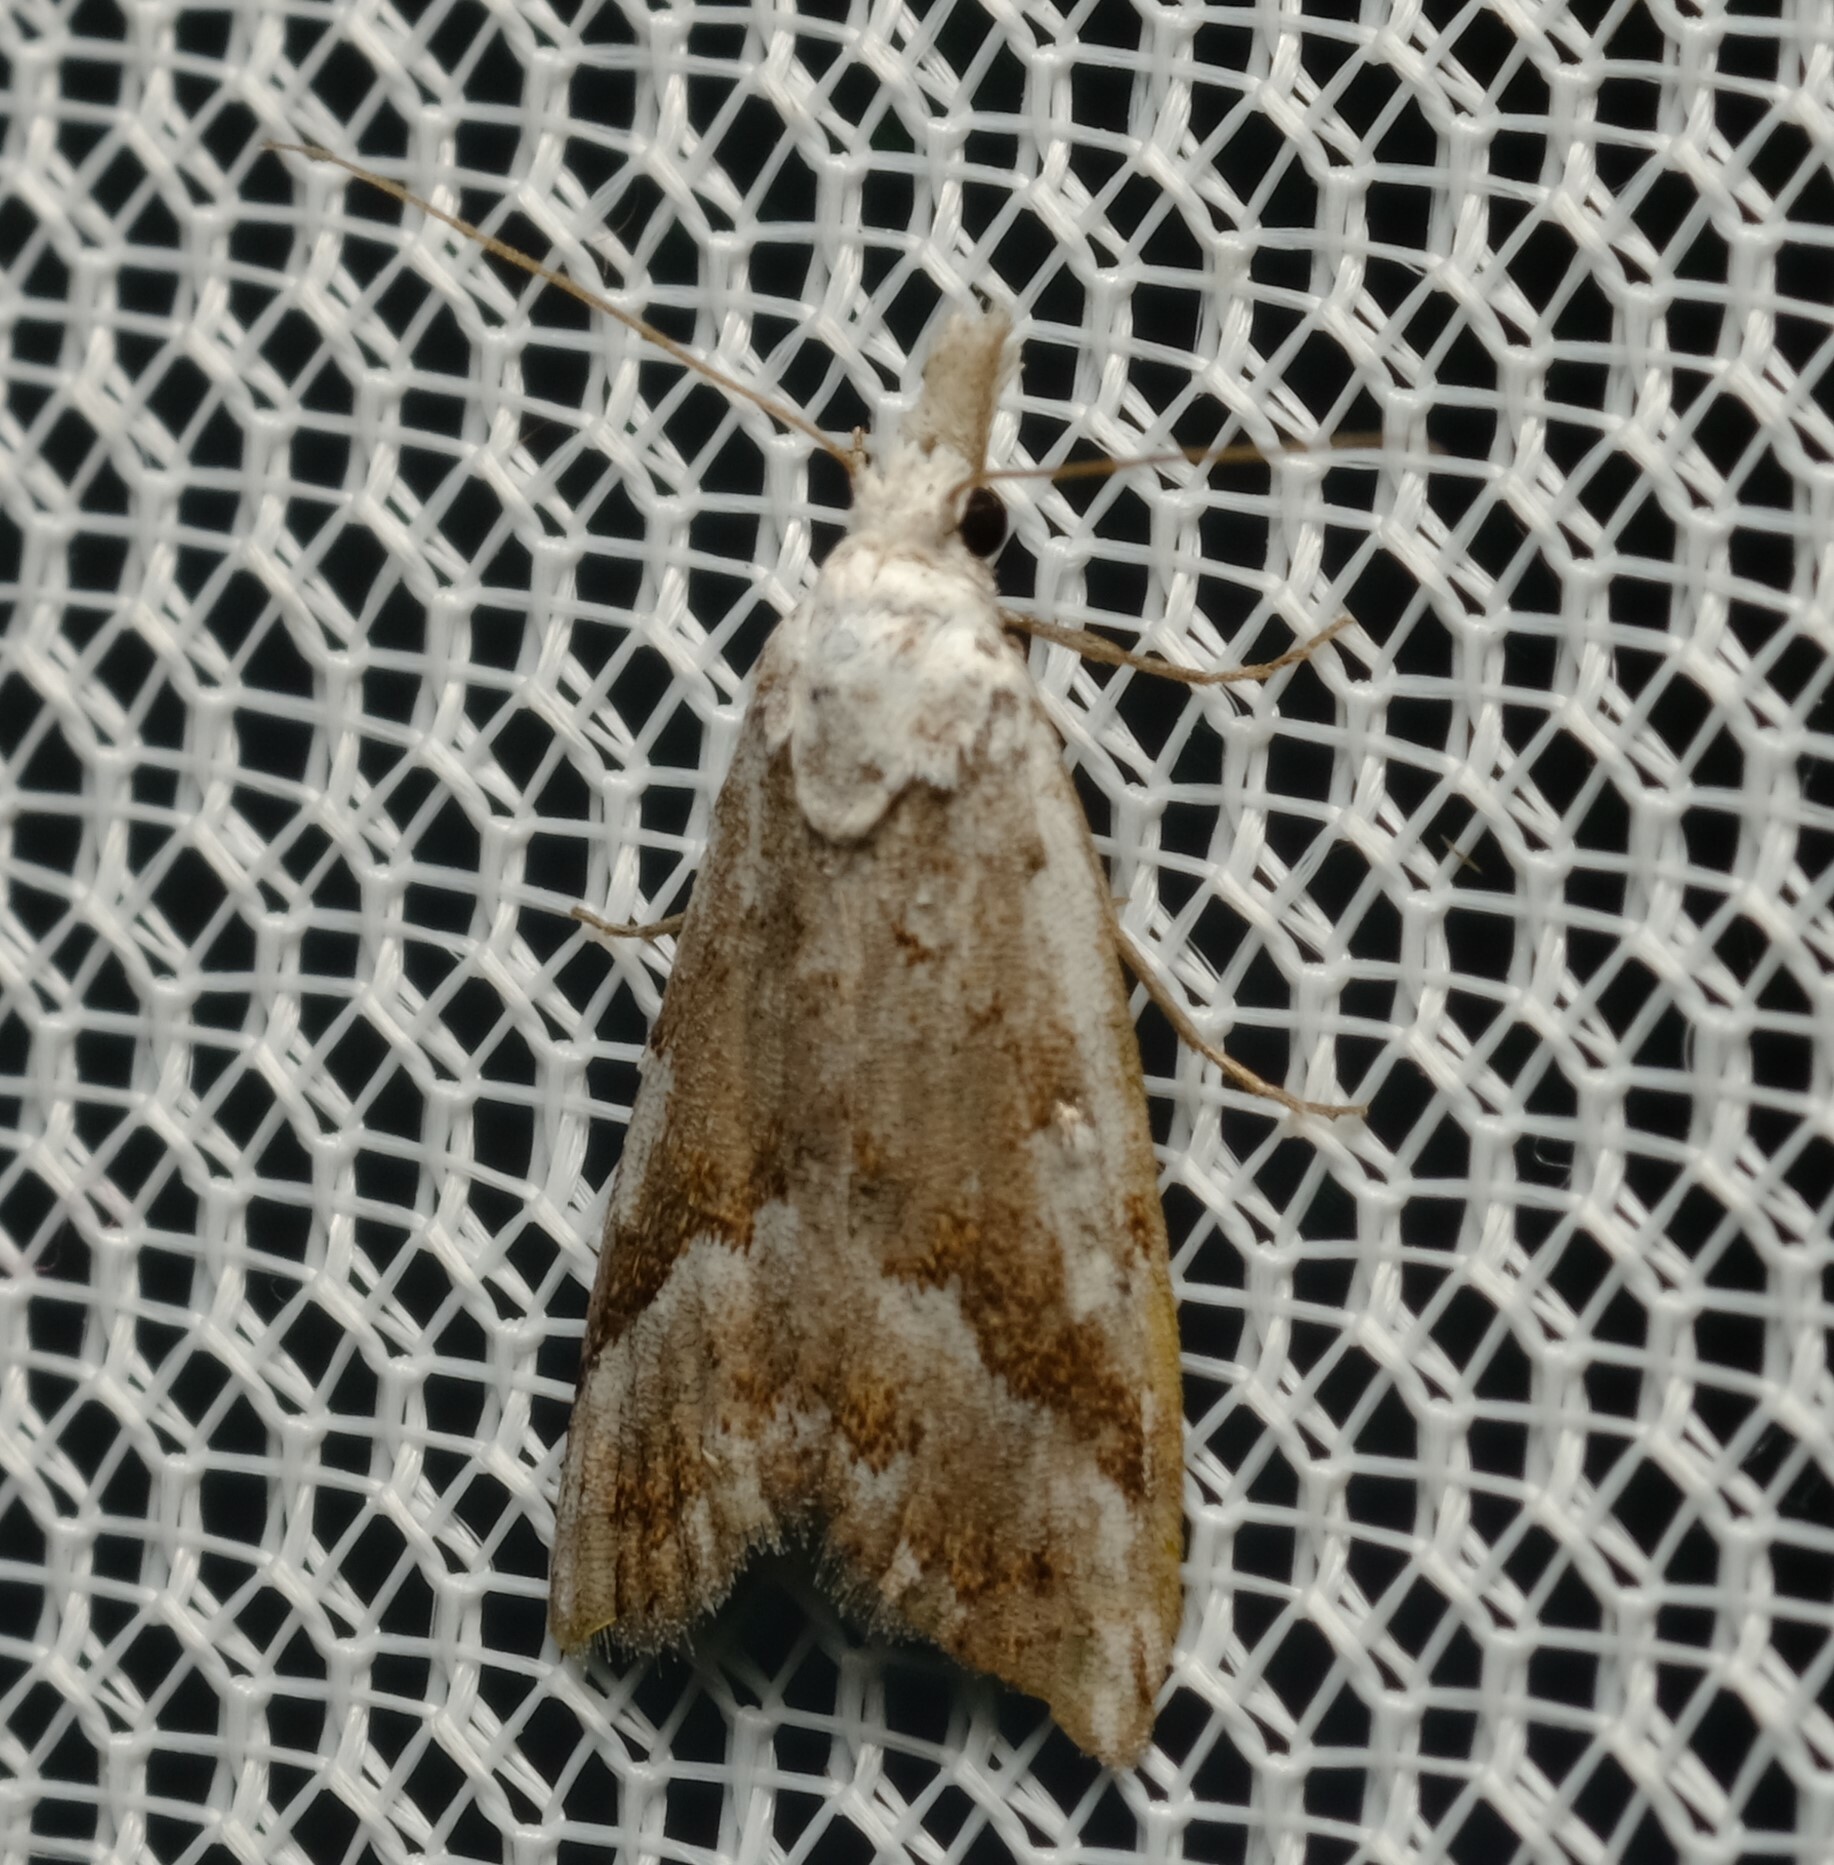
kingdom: Animalia
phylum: Arthropoda
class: Insecta
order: Lepidoptera
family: Nolidae
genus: Nola
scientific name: Nola albalis
